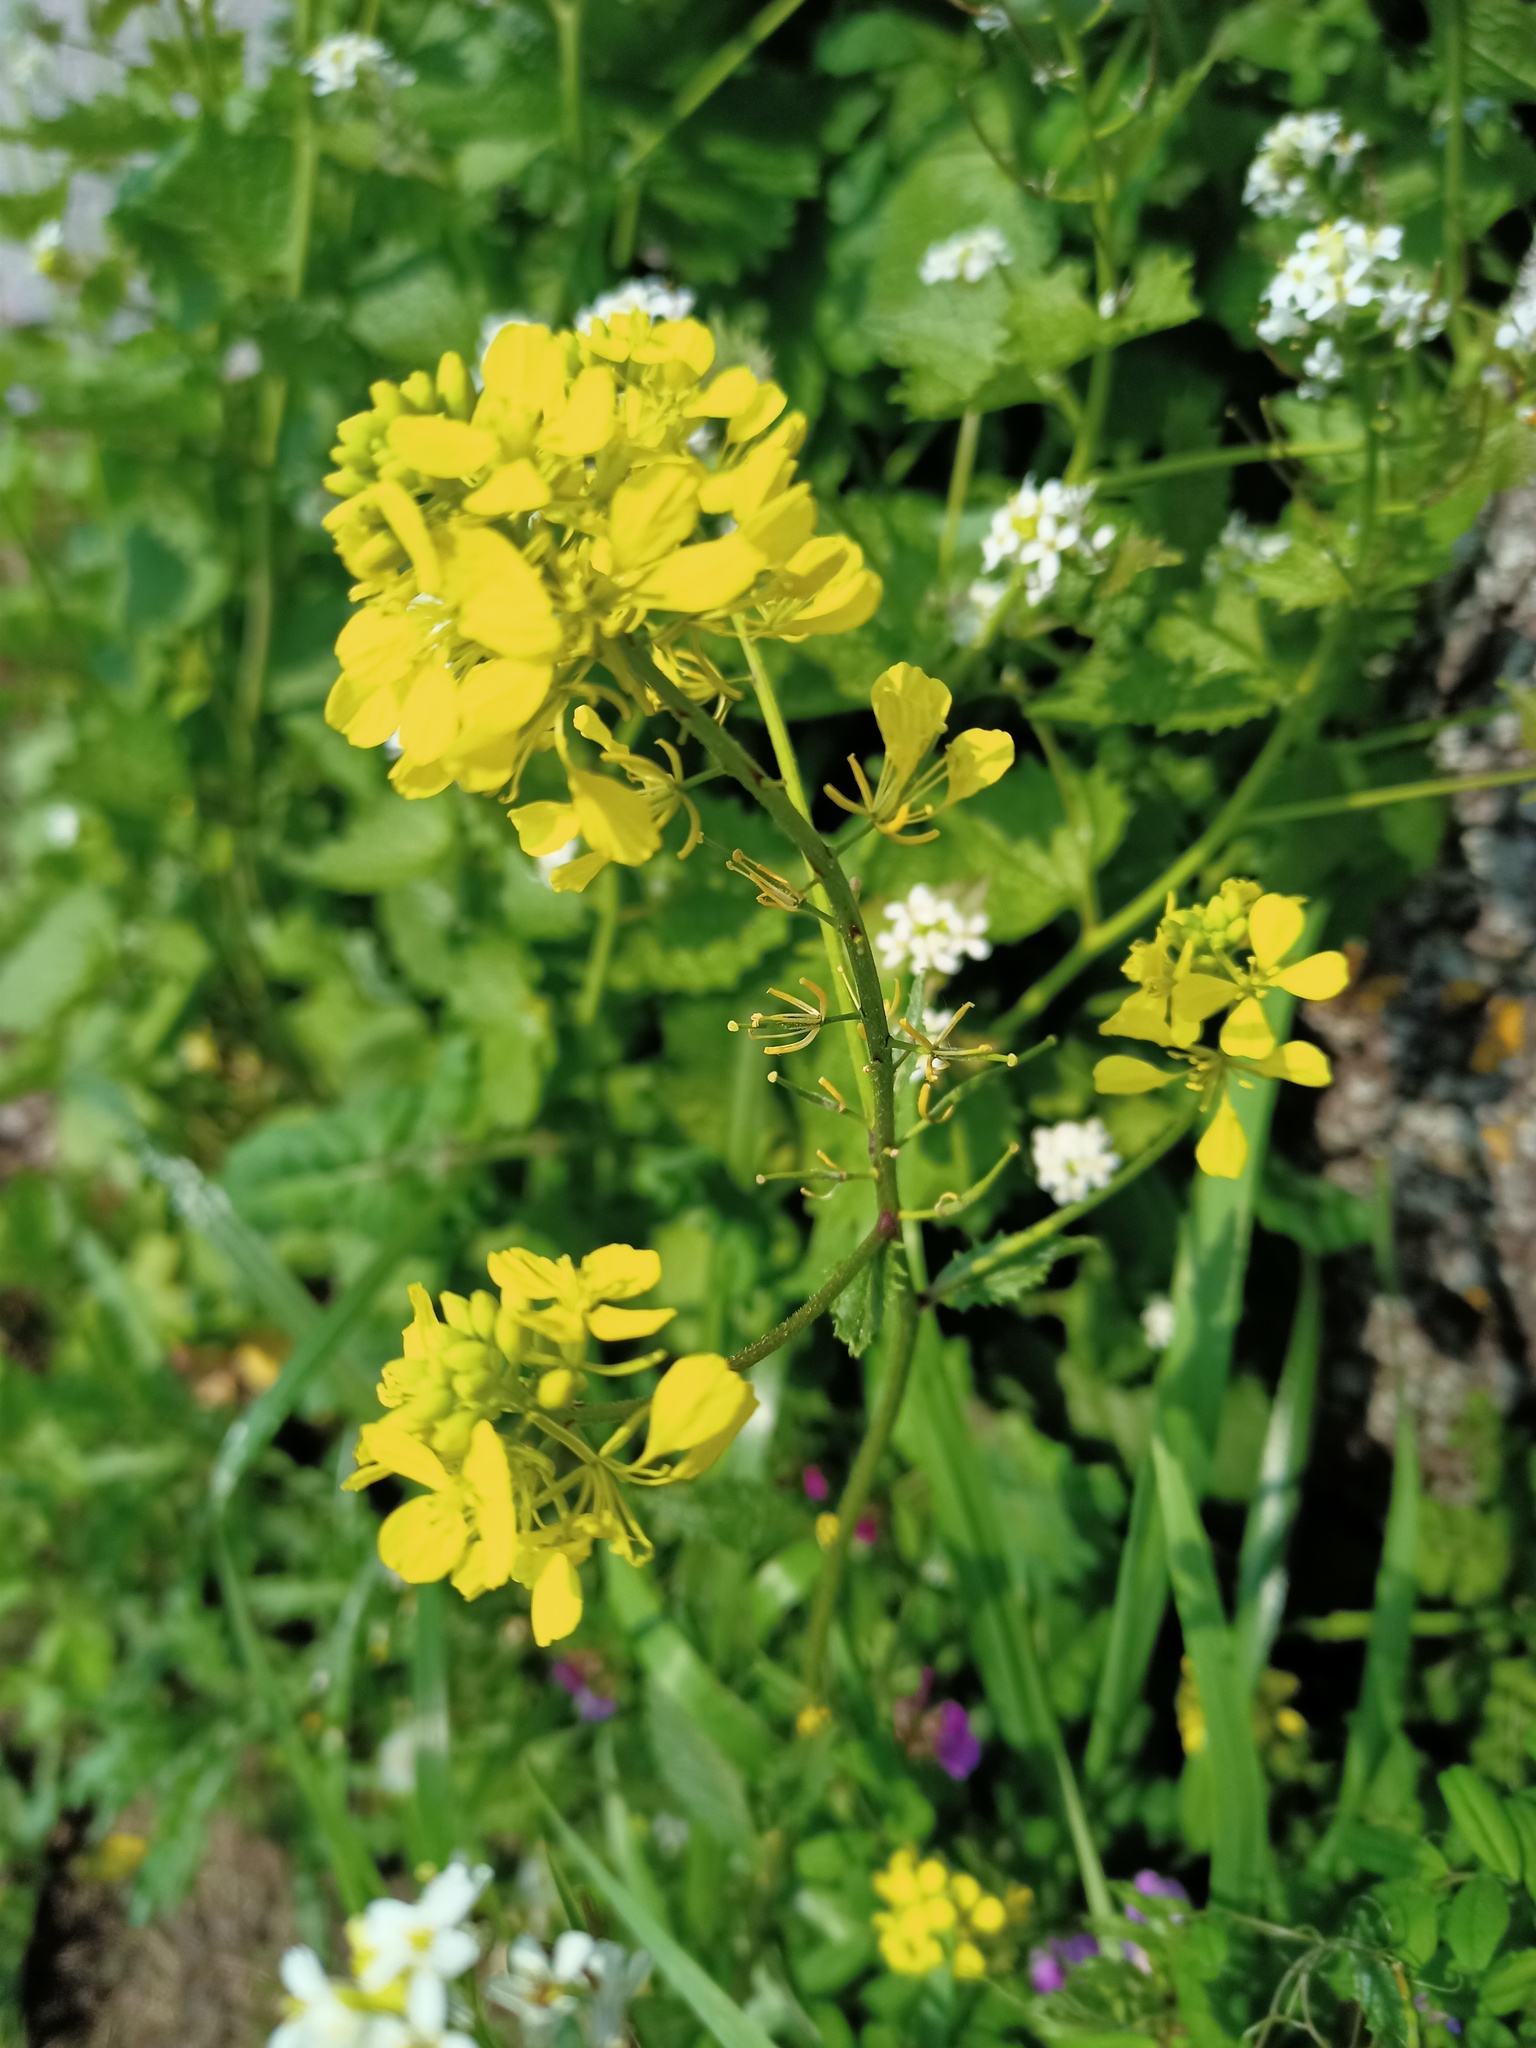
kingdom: Plantae
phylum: Tracheophyta
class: Magnoliopsida
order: Brassicales
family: Brassicaceae
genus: Sinapis
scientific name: Sinapis arvensis
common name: Charlock
